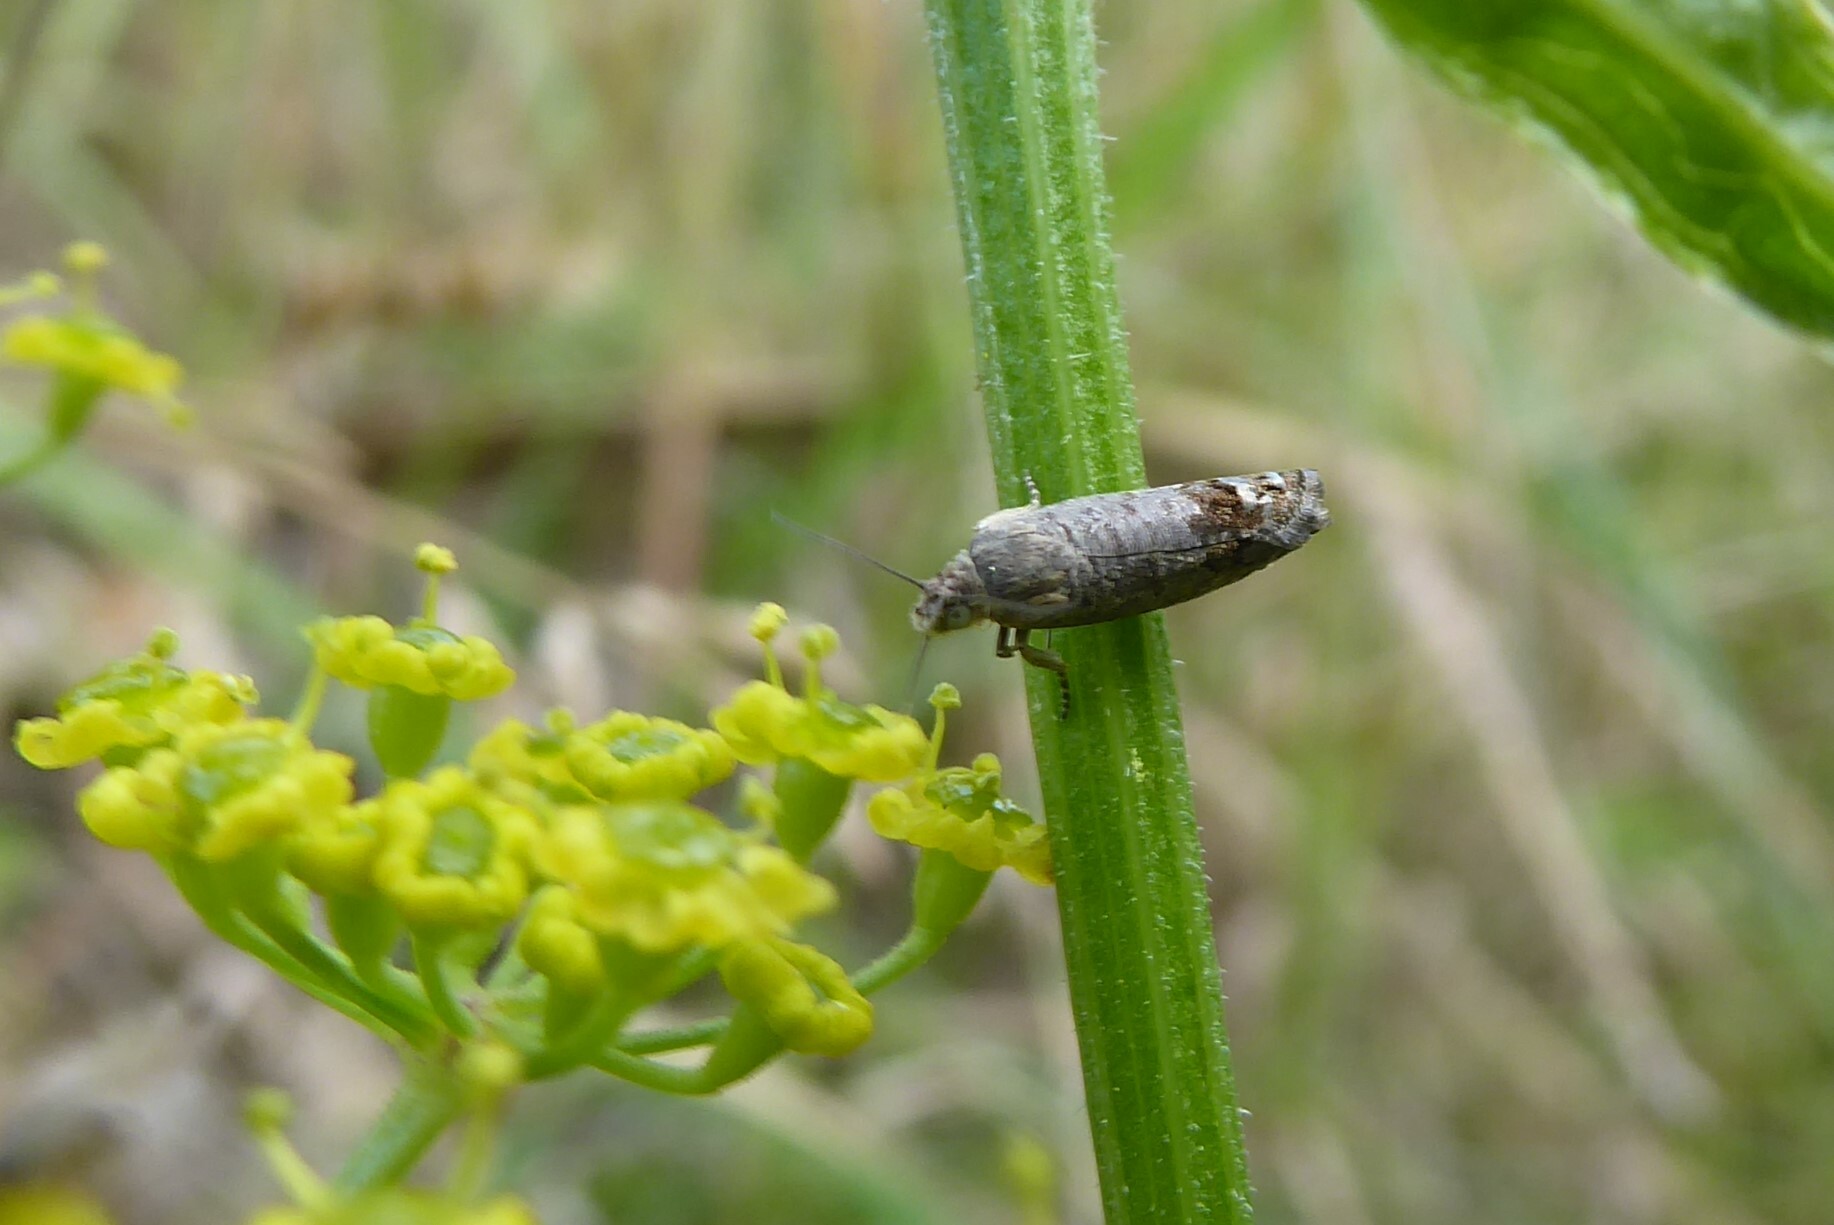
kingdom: Animalia
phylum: Arthropoda
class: Insecta
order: Lepidoptera
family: Tortricidae
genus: Cydia
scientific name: Cydia succedana
